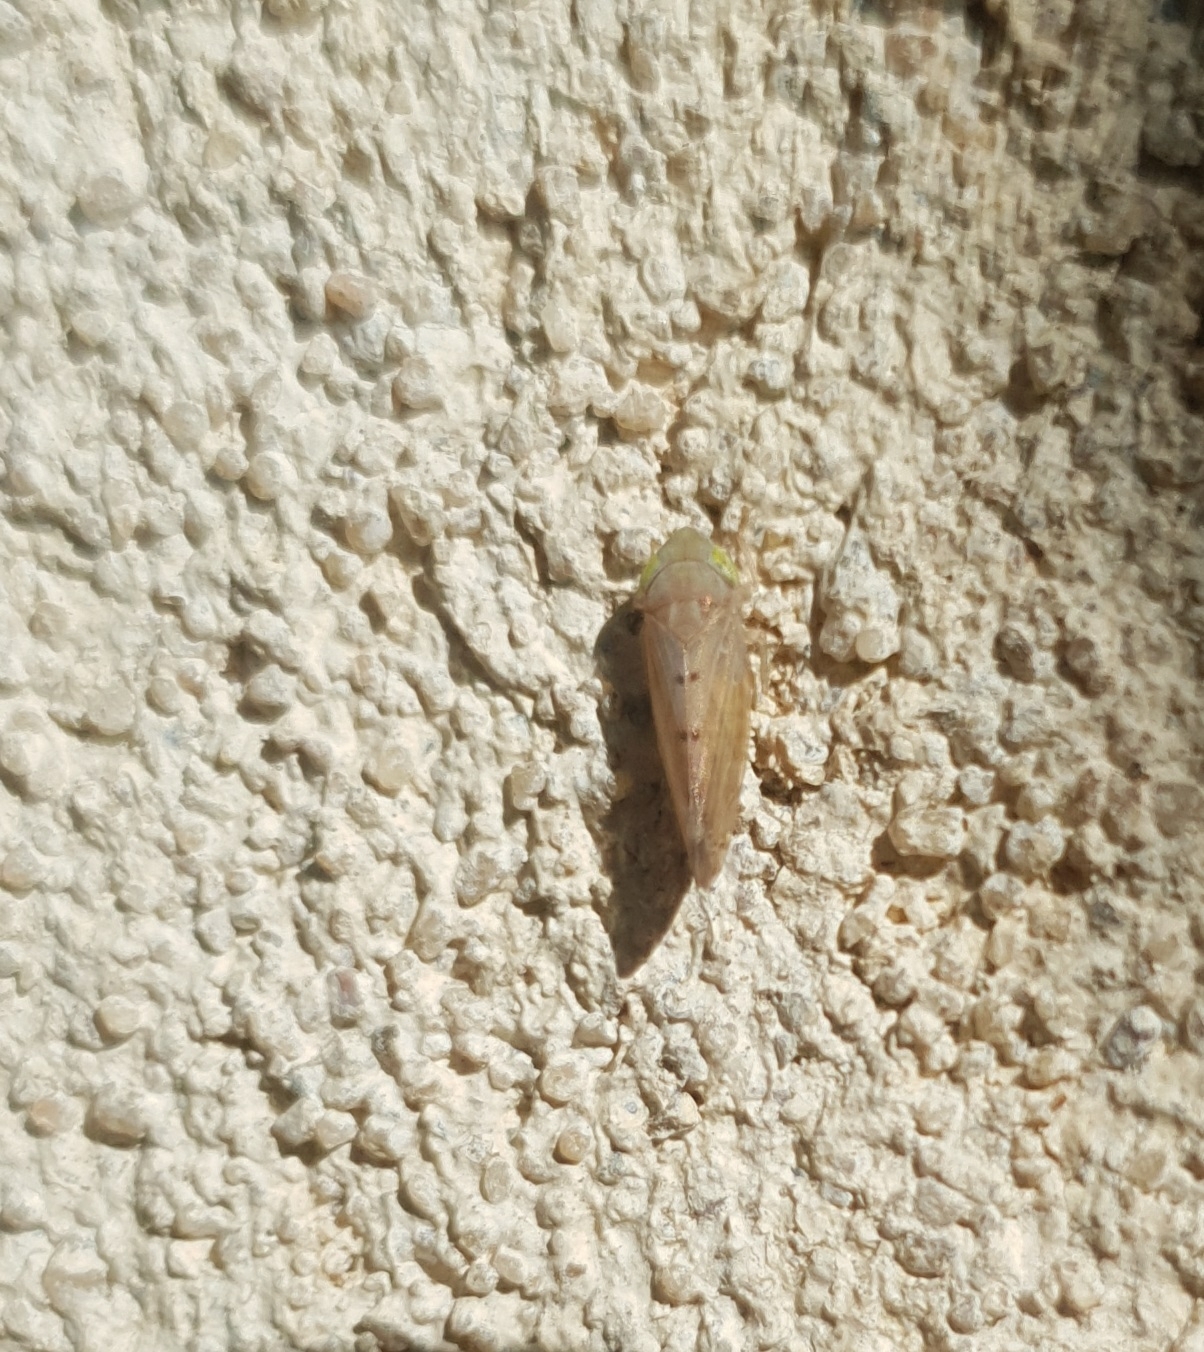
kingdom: Animalia
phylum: Arthropoda
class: Insecta
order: Hemiptera
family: Cicadellidae
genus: Synophropsis
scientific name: Synophropsis lauri
